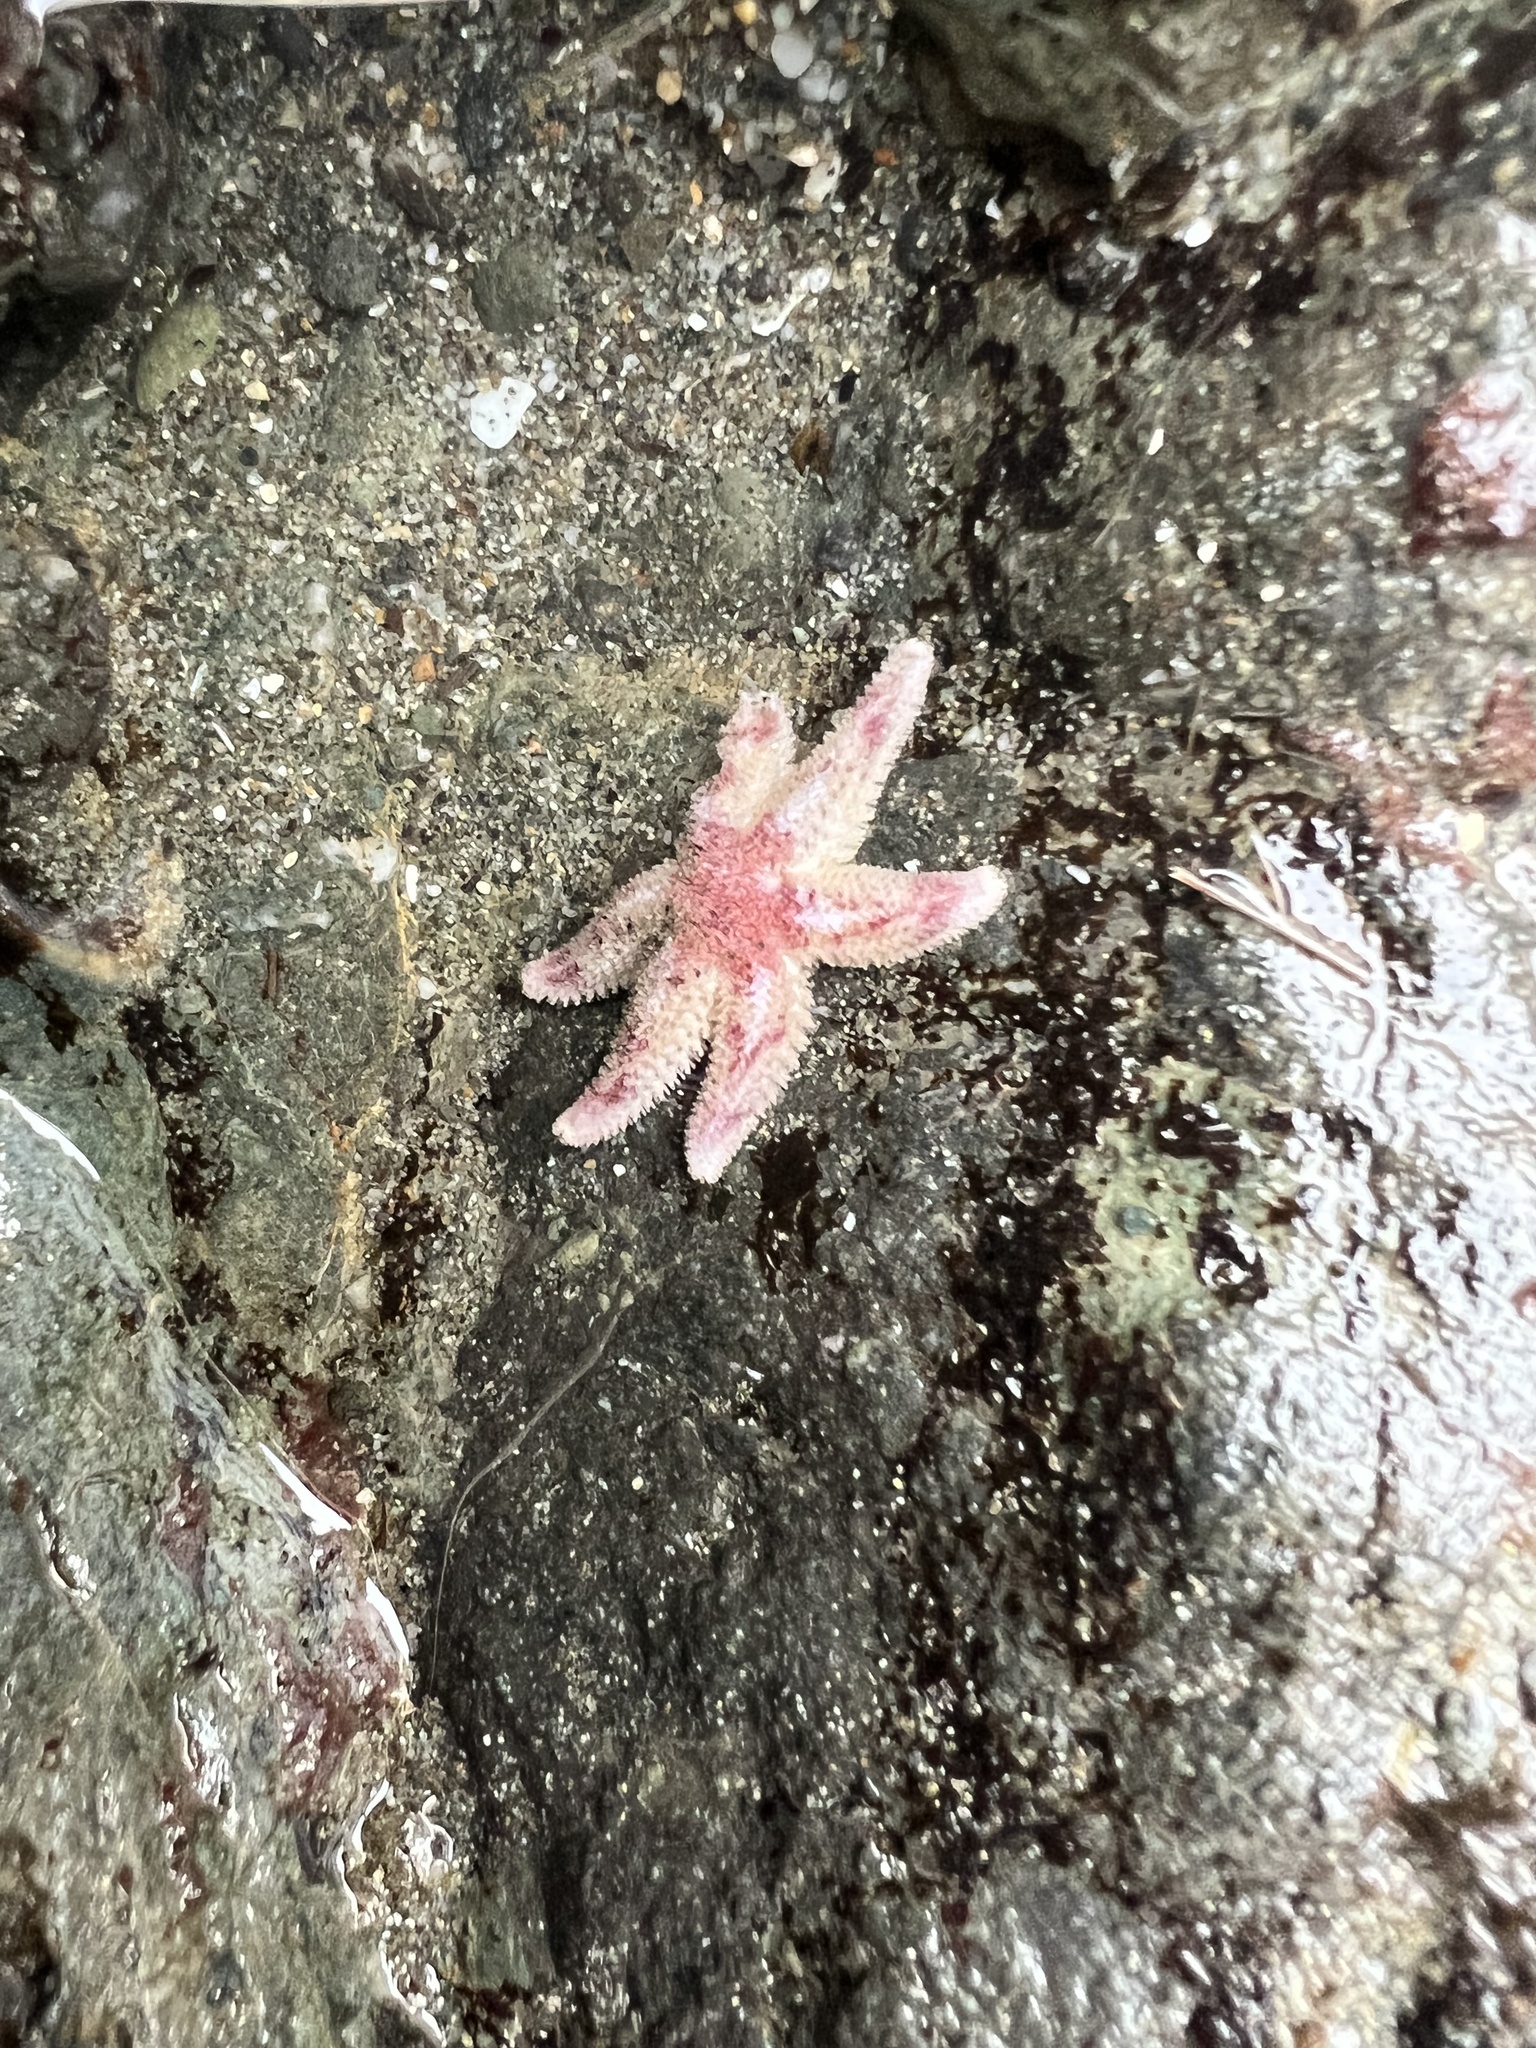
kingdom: Animalia
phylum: Echinodermata
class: Asteroidea
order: Forcipulatida
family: Asteriidae
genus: Leptasterias
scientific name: Leptasterias hexactis
